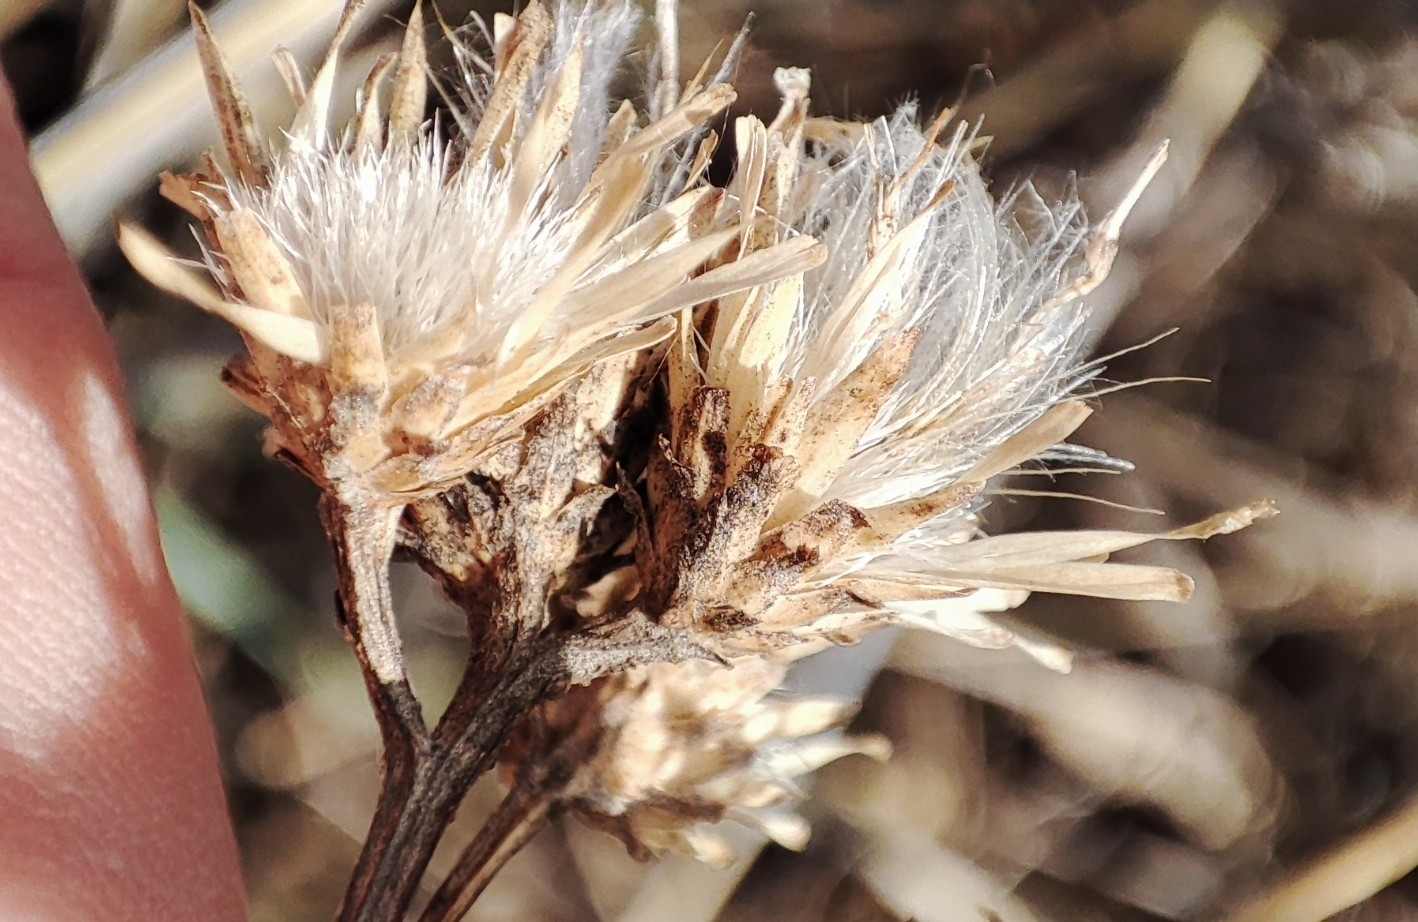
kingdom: Plantae
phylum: Tracheophyta
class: Magnoliopsida
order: Asterales
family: Asteraceae
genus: Saussurea
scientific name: Saussurea amara
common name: Alberta sawwort
